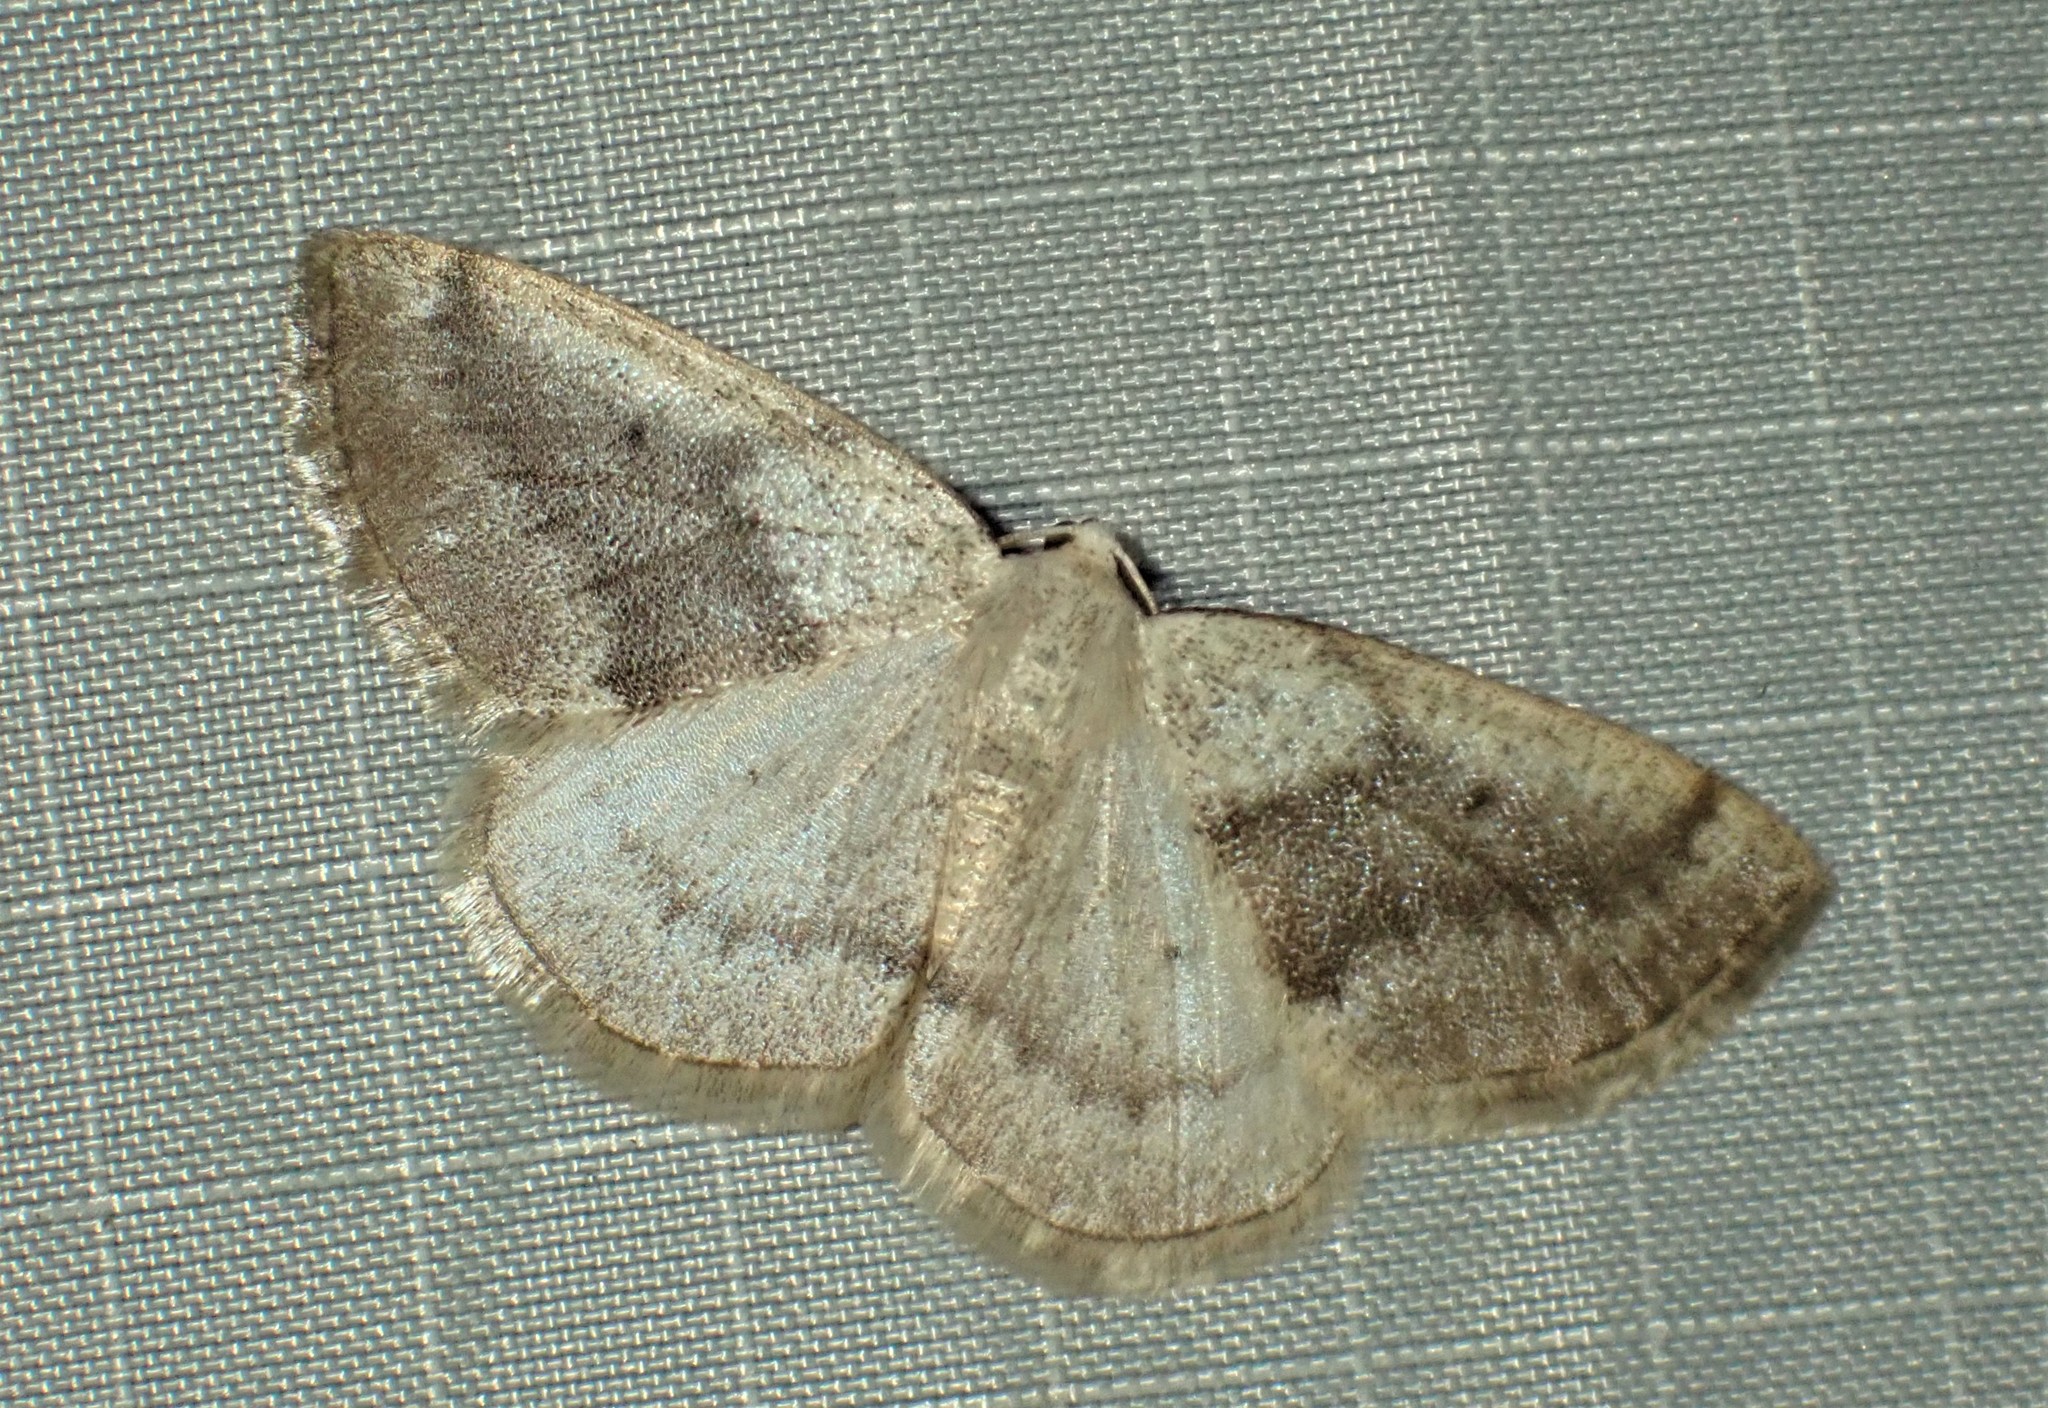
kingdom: Animalia
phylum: Arthropoda
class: Insecta
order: Lepidoptera
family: Geometridae
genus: Lomographa
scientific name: Lomographa glomeraria
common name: Gray spring moth
